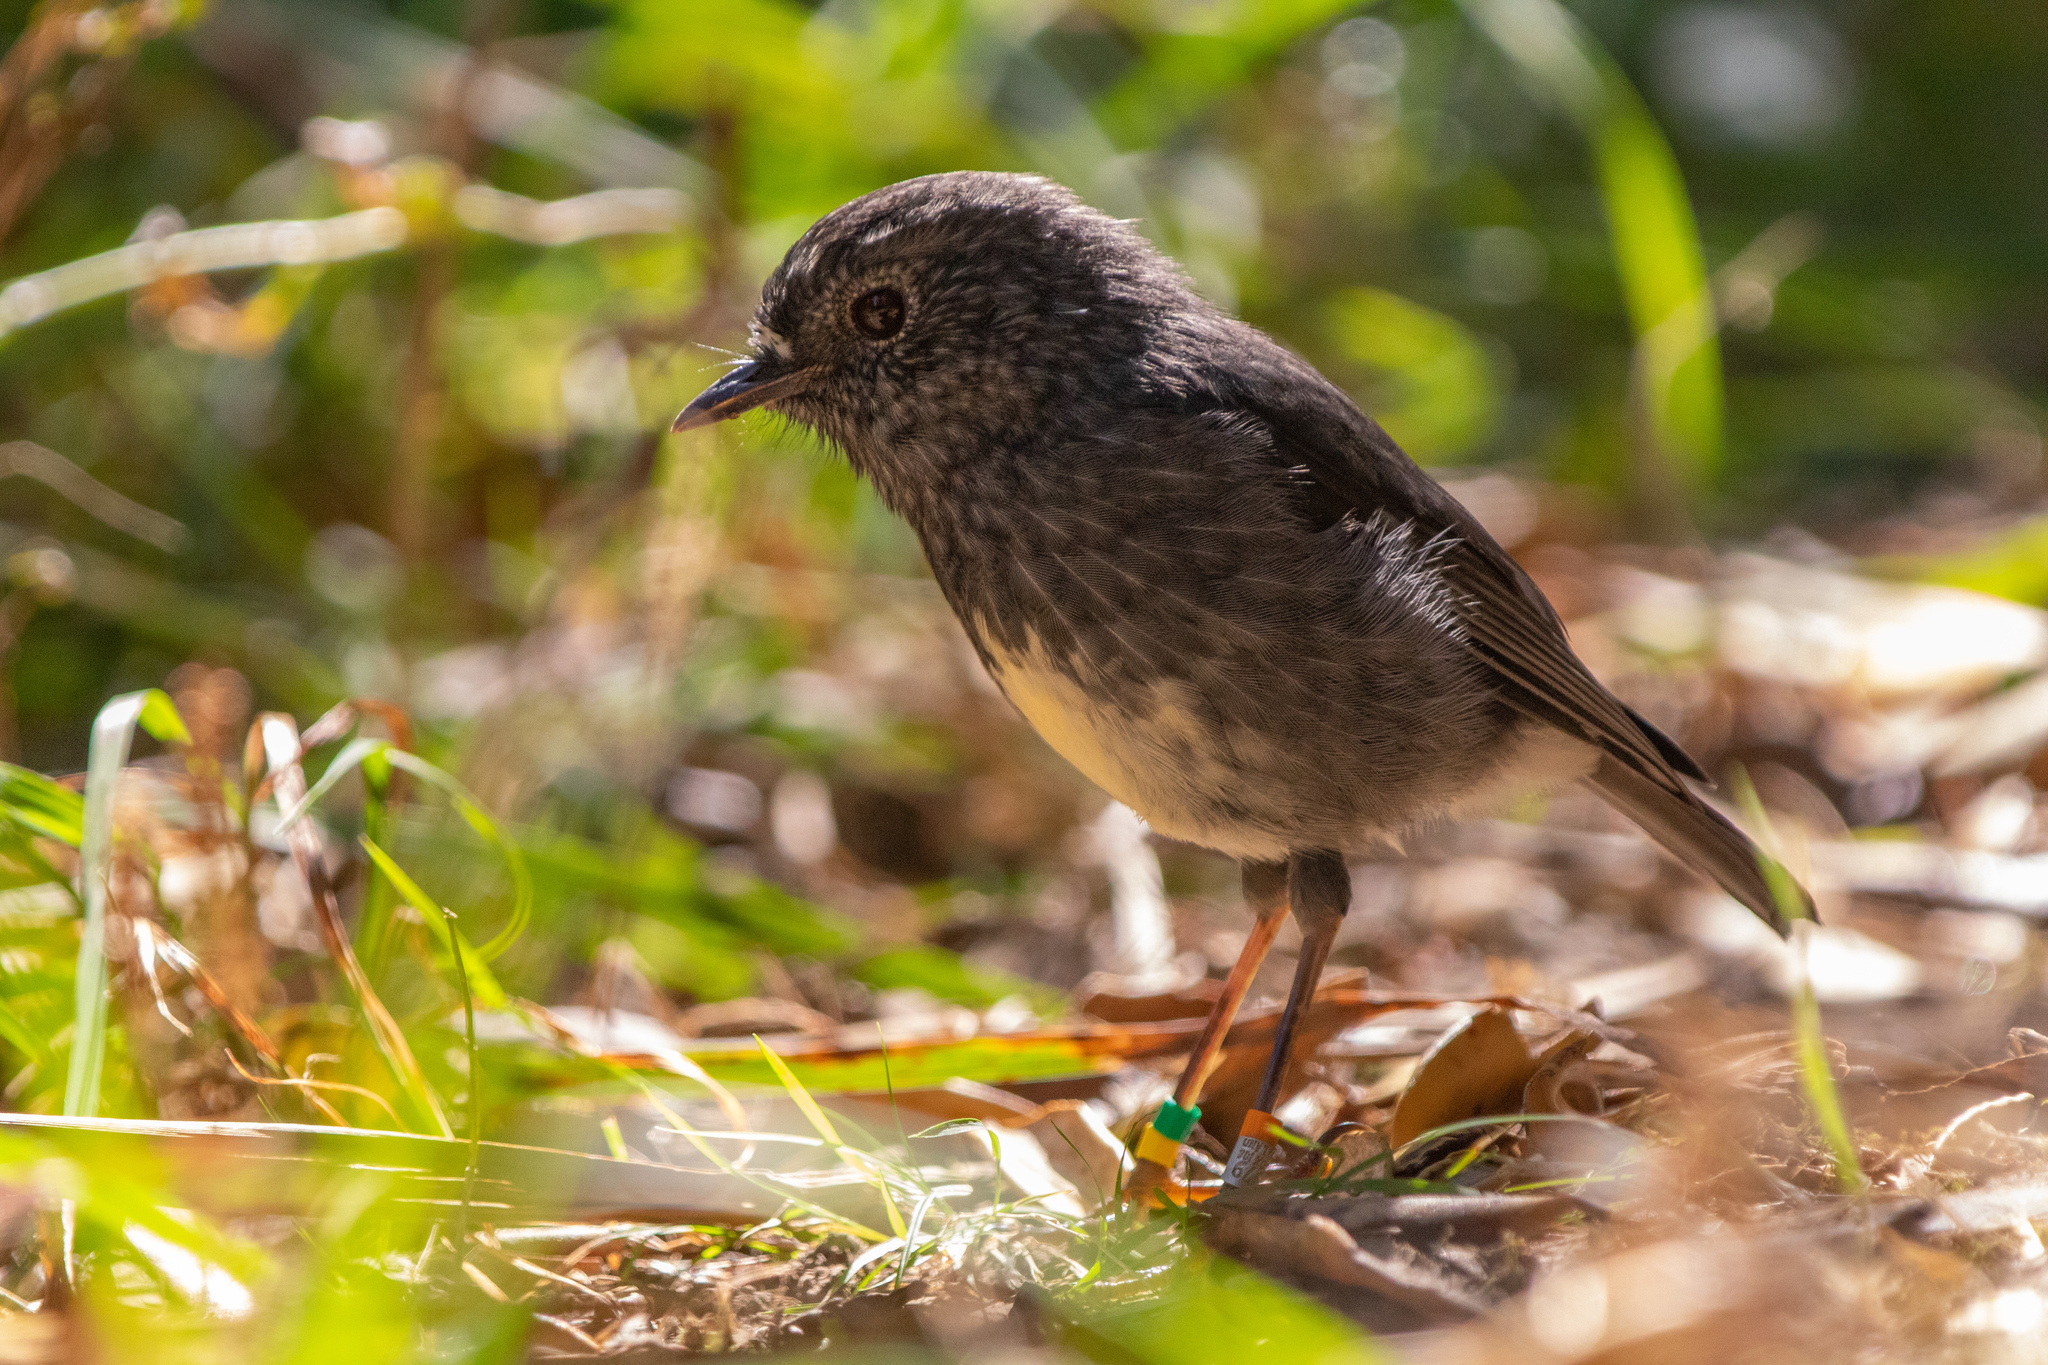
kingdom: Animalia
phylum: Chordata
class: Aves
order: Passeriformes
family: Petroicidae
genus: Petroica
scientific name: Petroica australis
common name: New zealand robin
